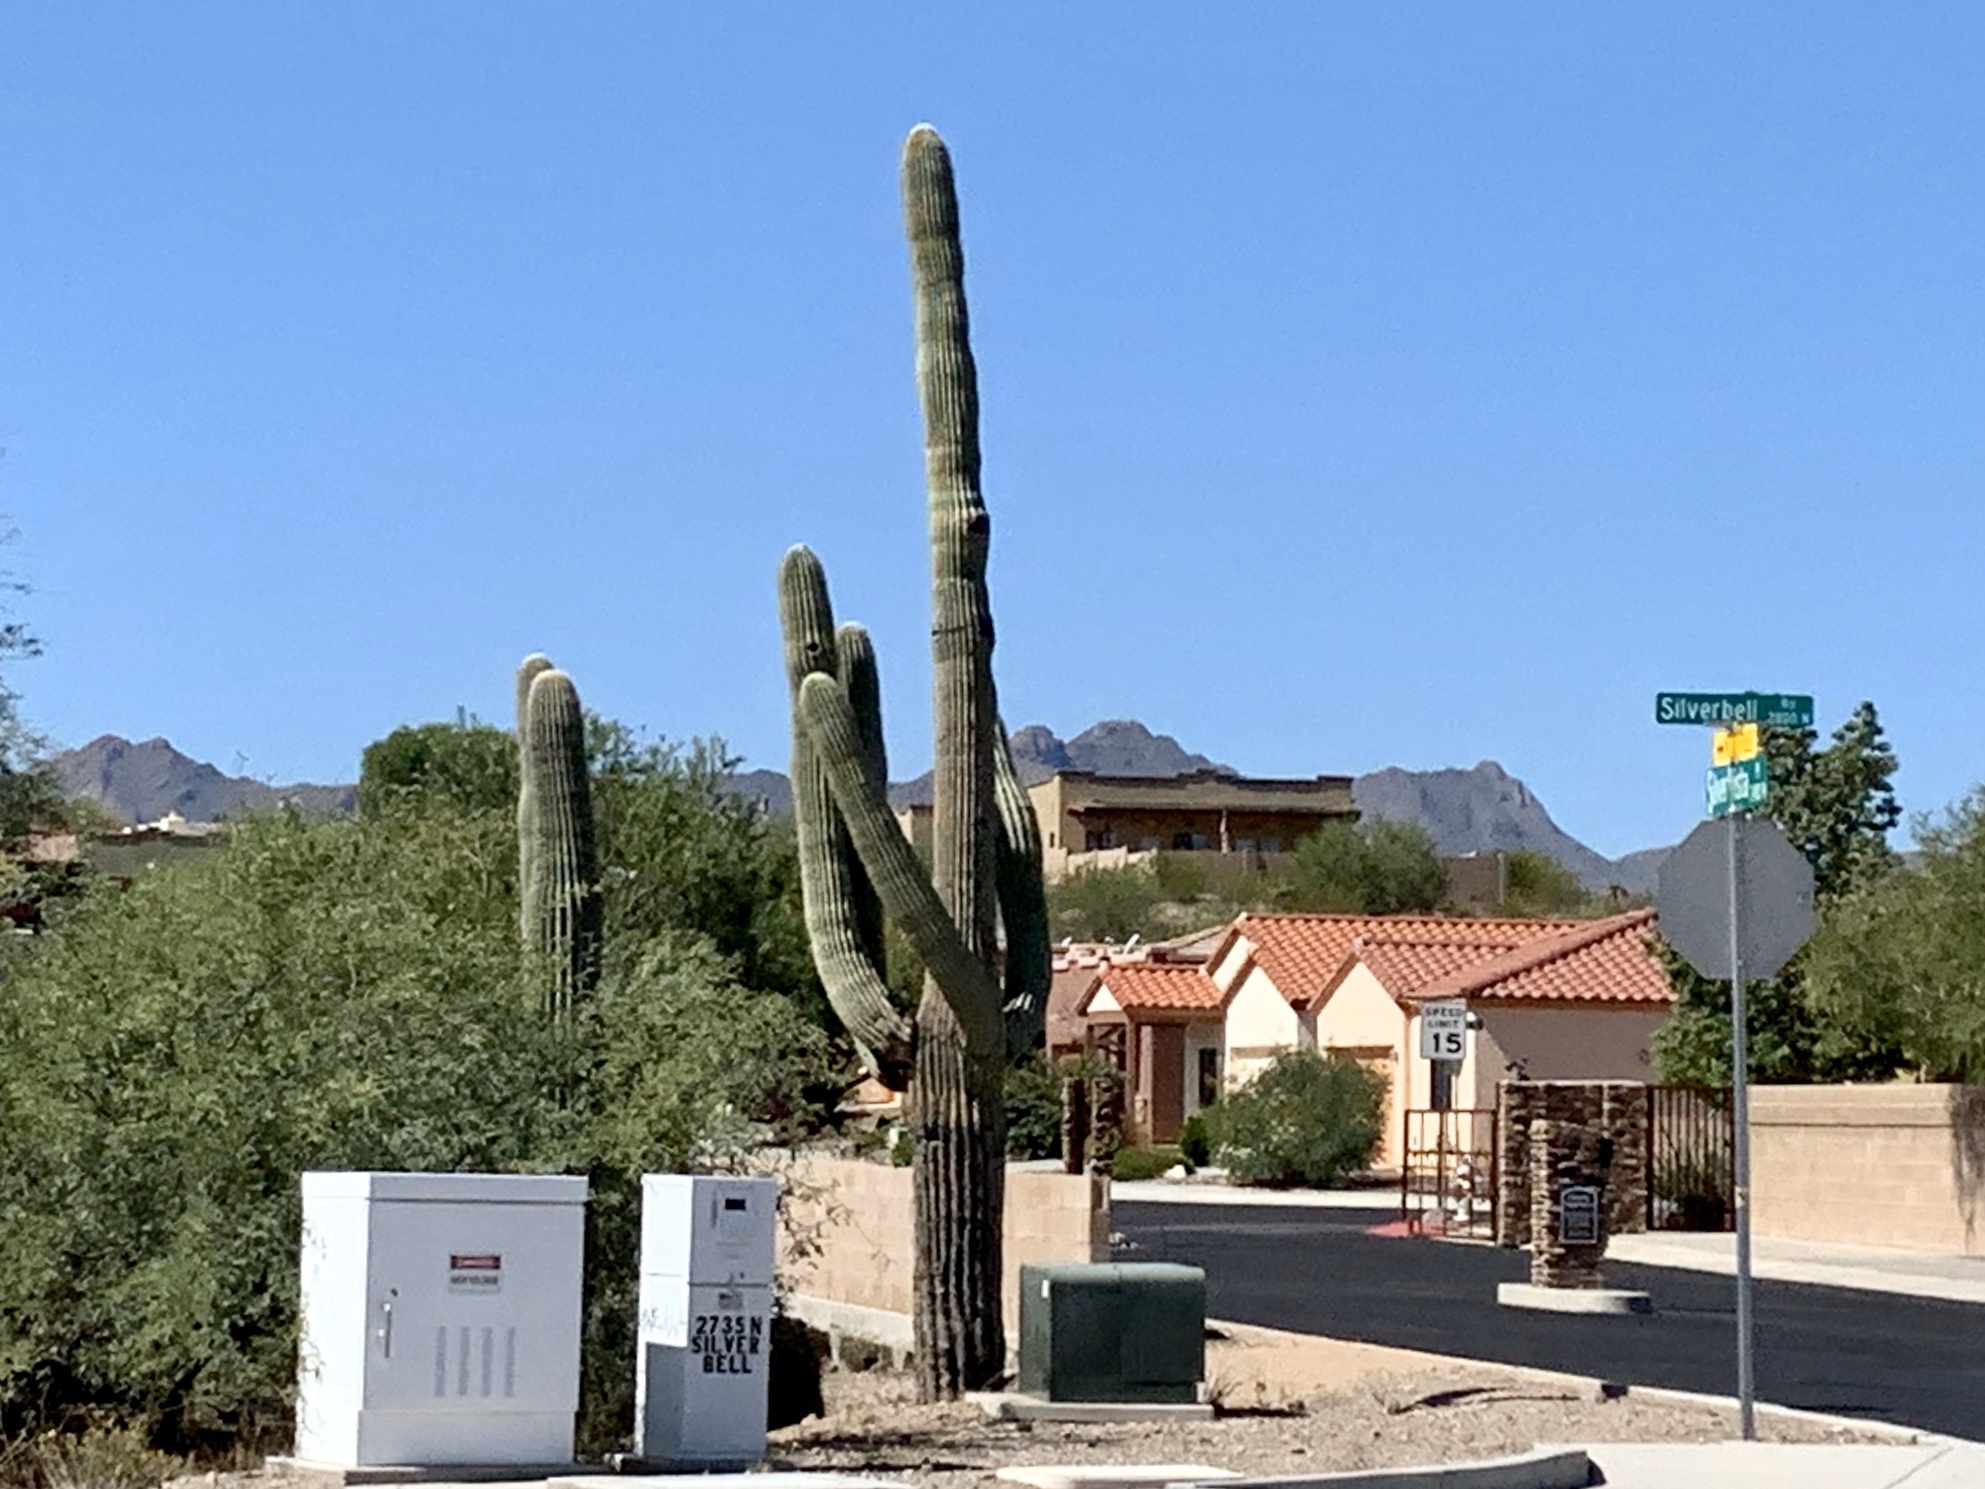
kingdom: Plantae
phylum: Tracheophyta
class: Magnoliopsida
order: Caryophyllales
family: Cactaceae
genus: Carnegiea
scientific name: Carnegiea gigantea
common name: Saguaro
